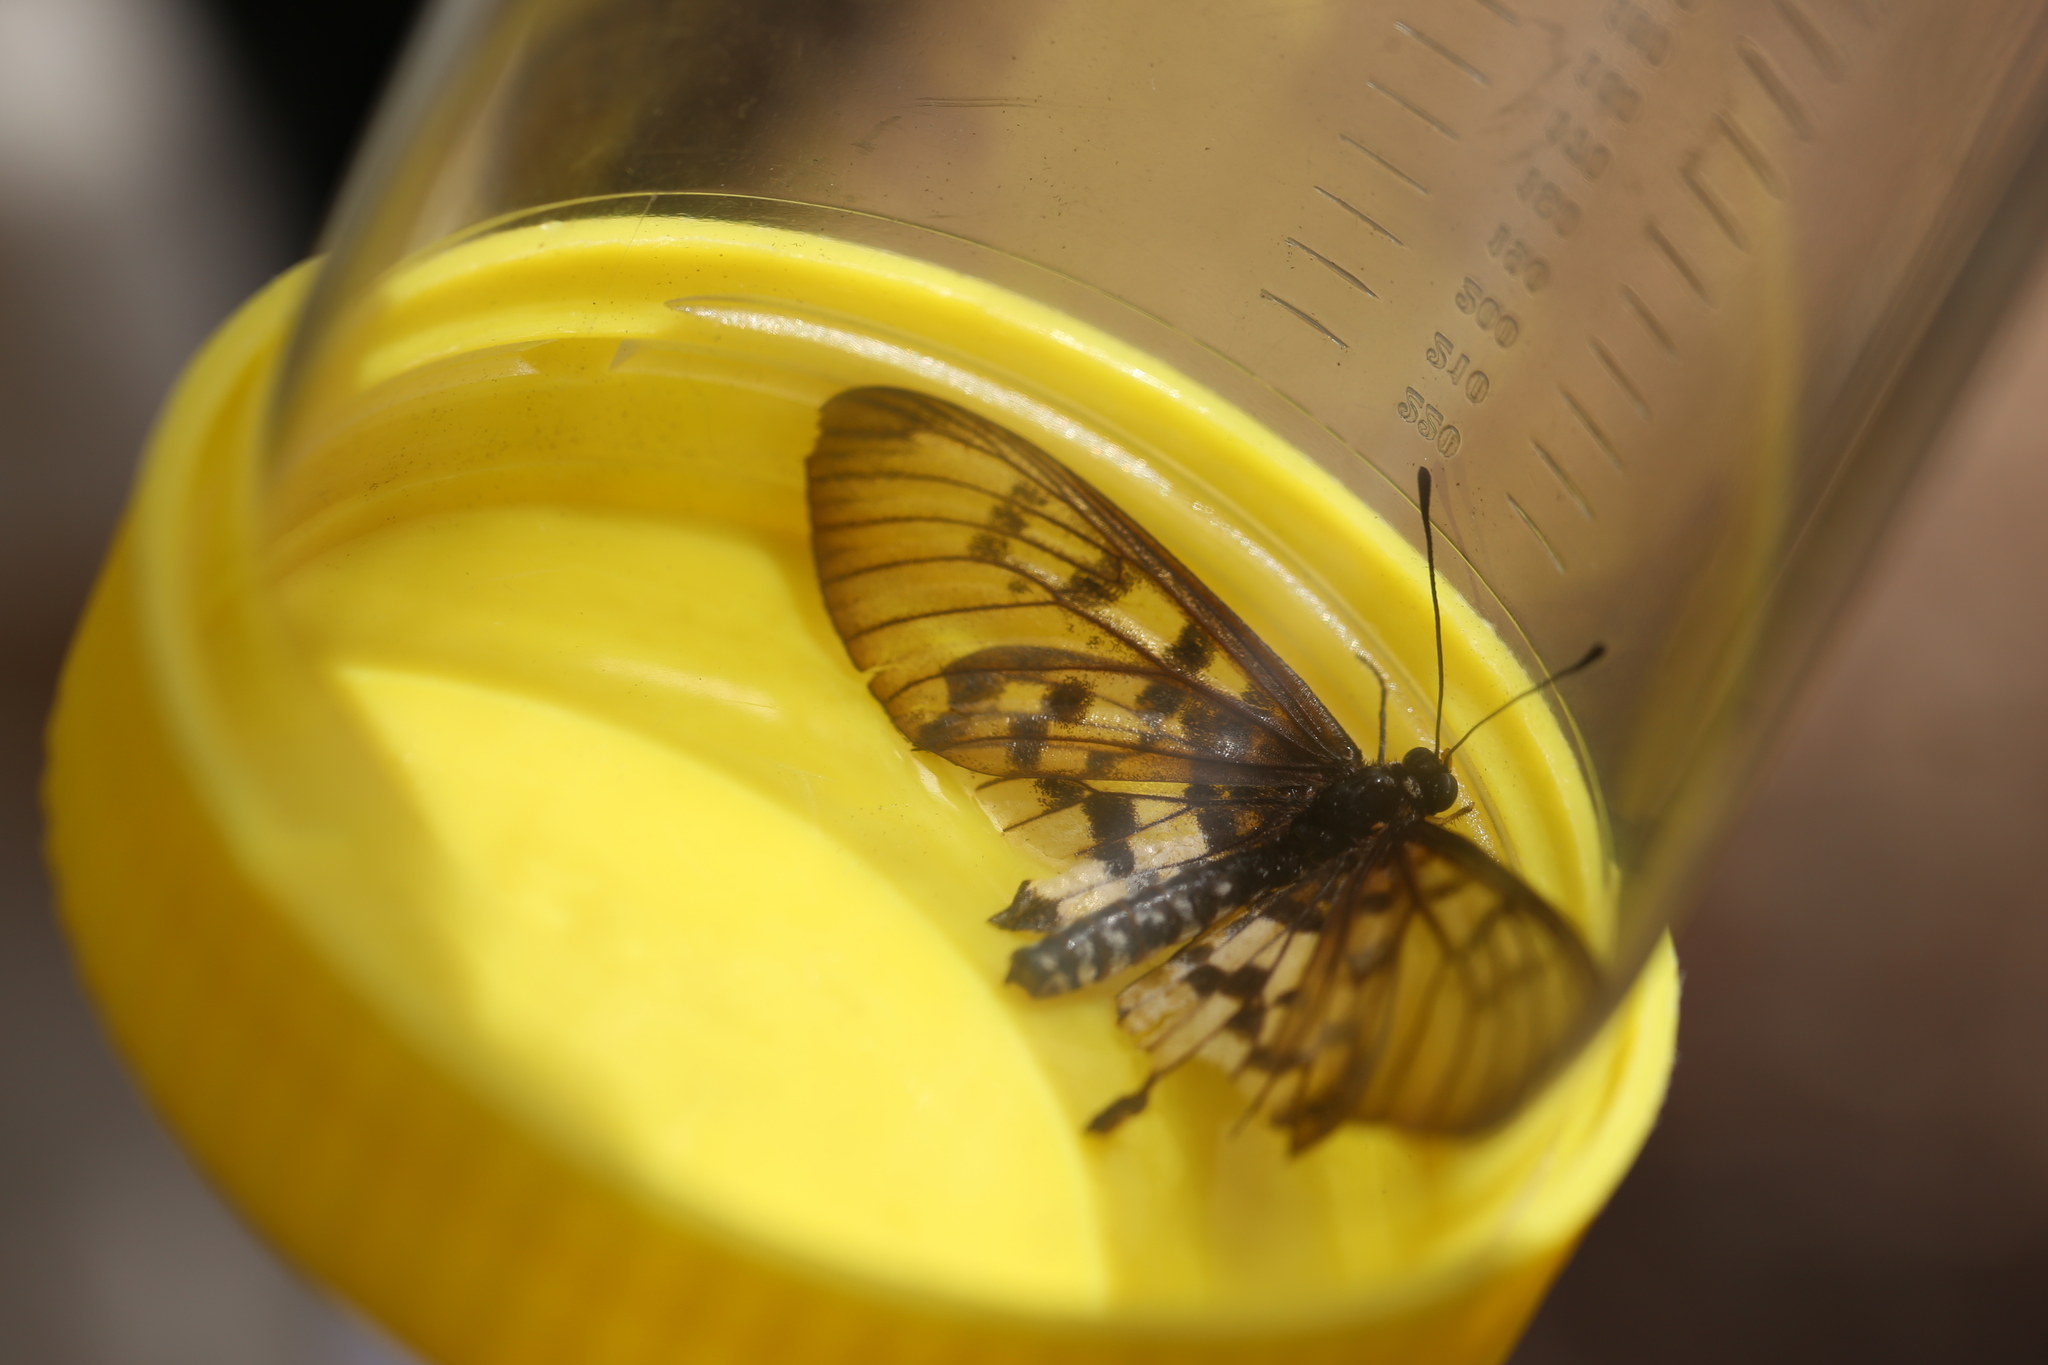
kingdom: Animalia
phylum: Arthropoda
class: Insecta
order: Lepidoptera
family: Nymphalidae
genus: Acraea
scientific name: Acraea andromacha
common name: Glasswing
